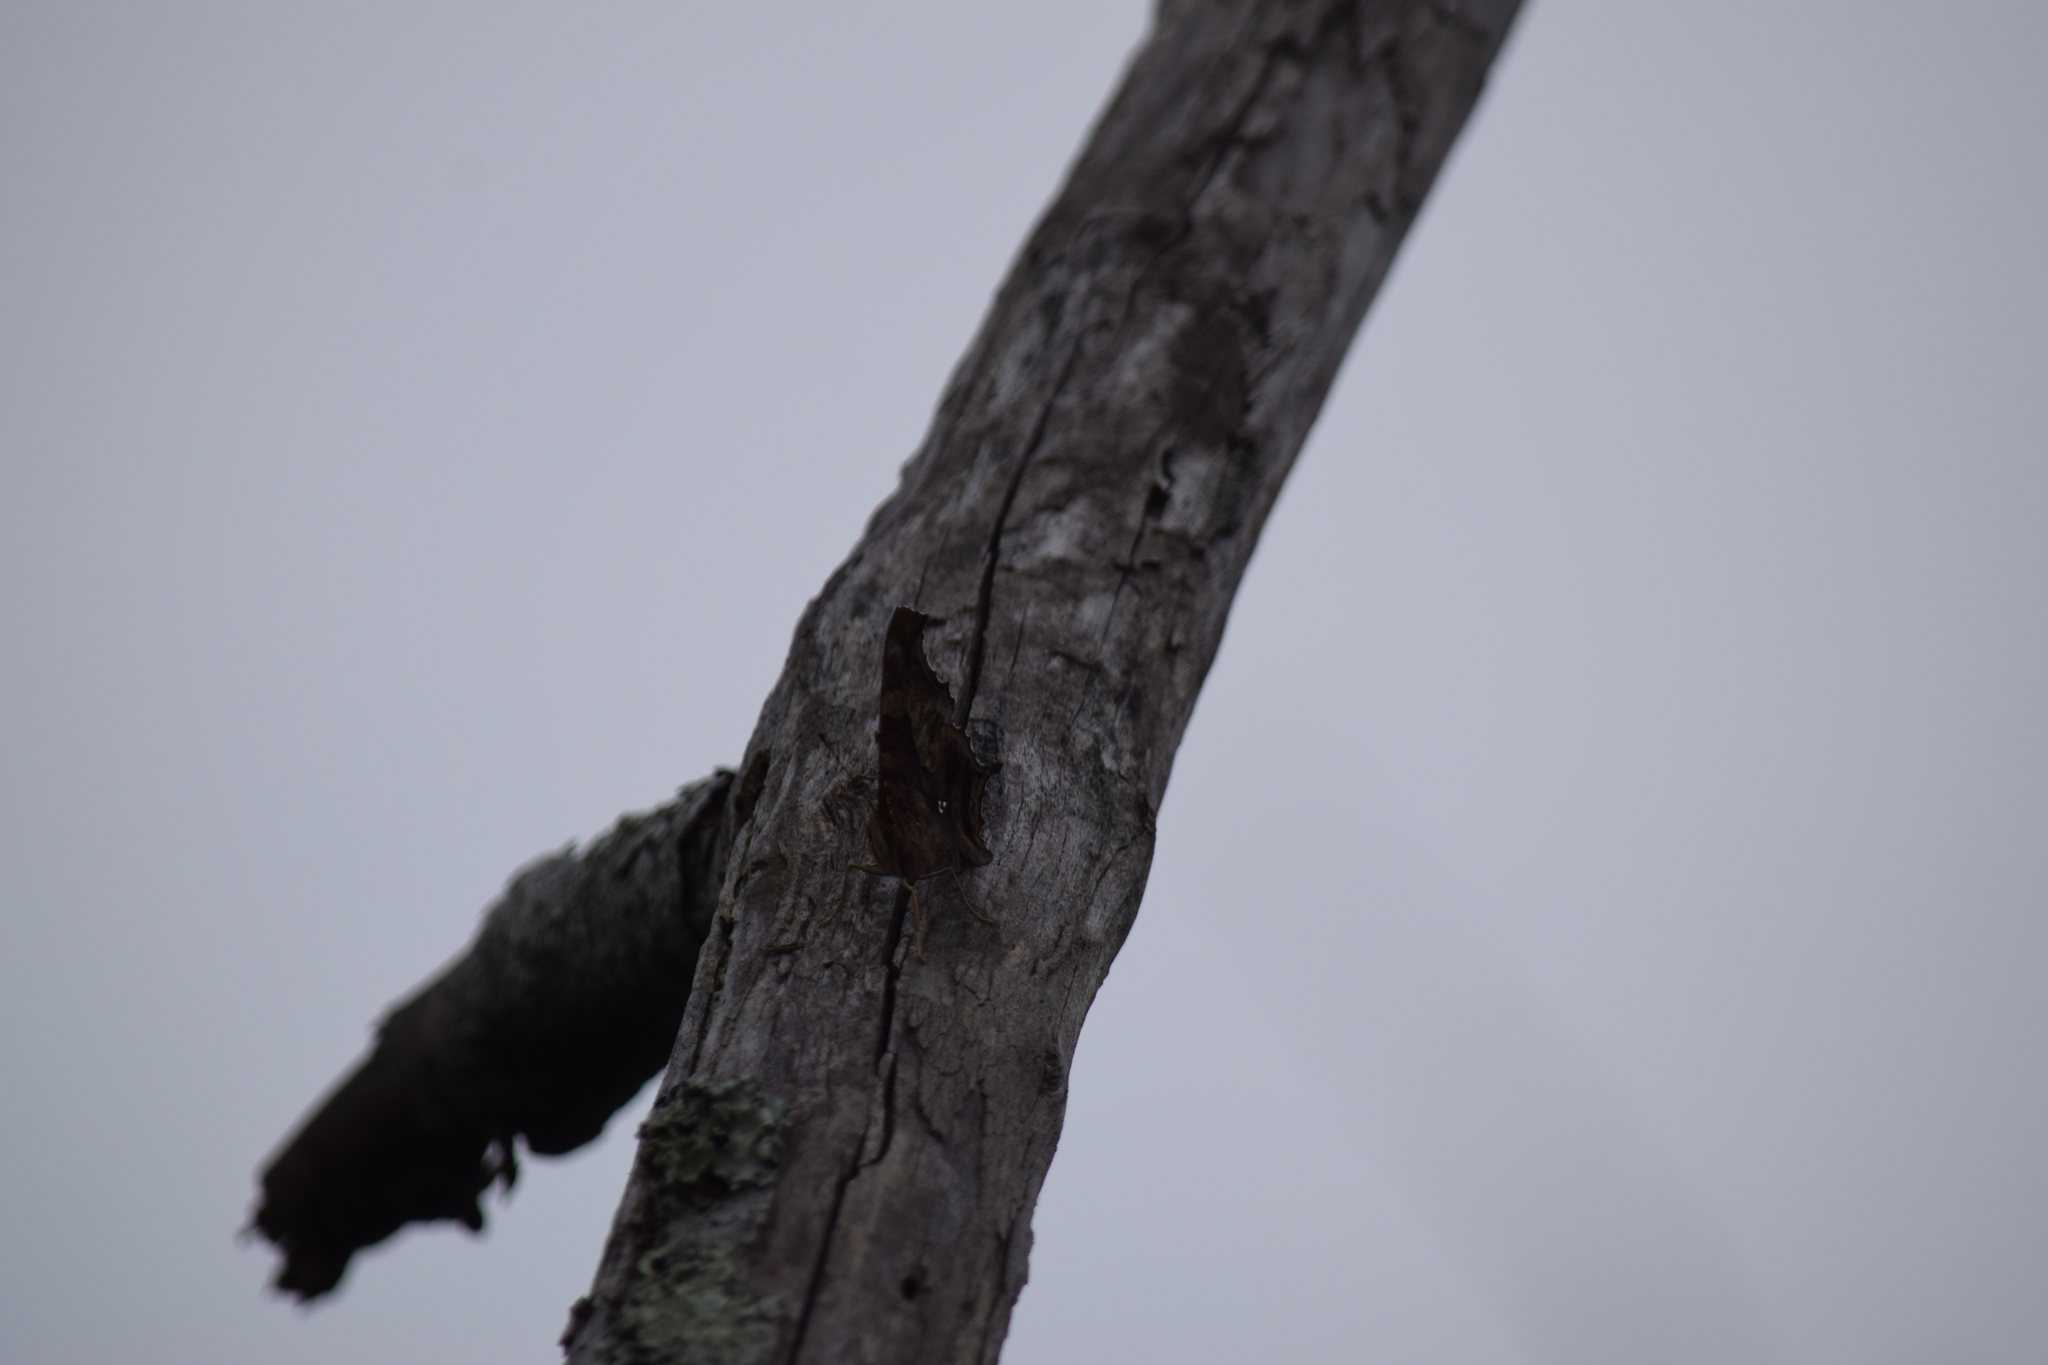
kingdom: Animalia
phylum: Arthropoda
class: Insecta
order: Lepidoptera
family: Nymphalidae
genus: Polygonia
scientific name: Polygonia interrogationis
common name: Question mark
